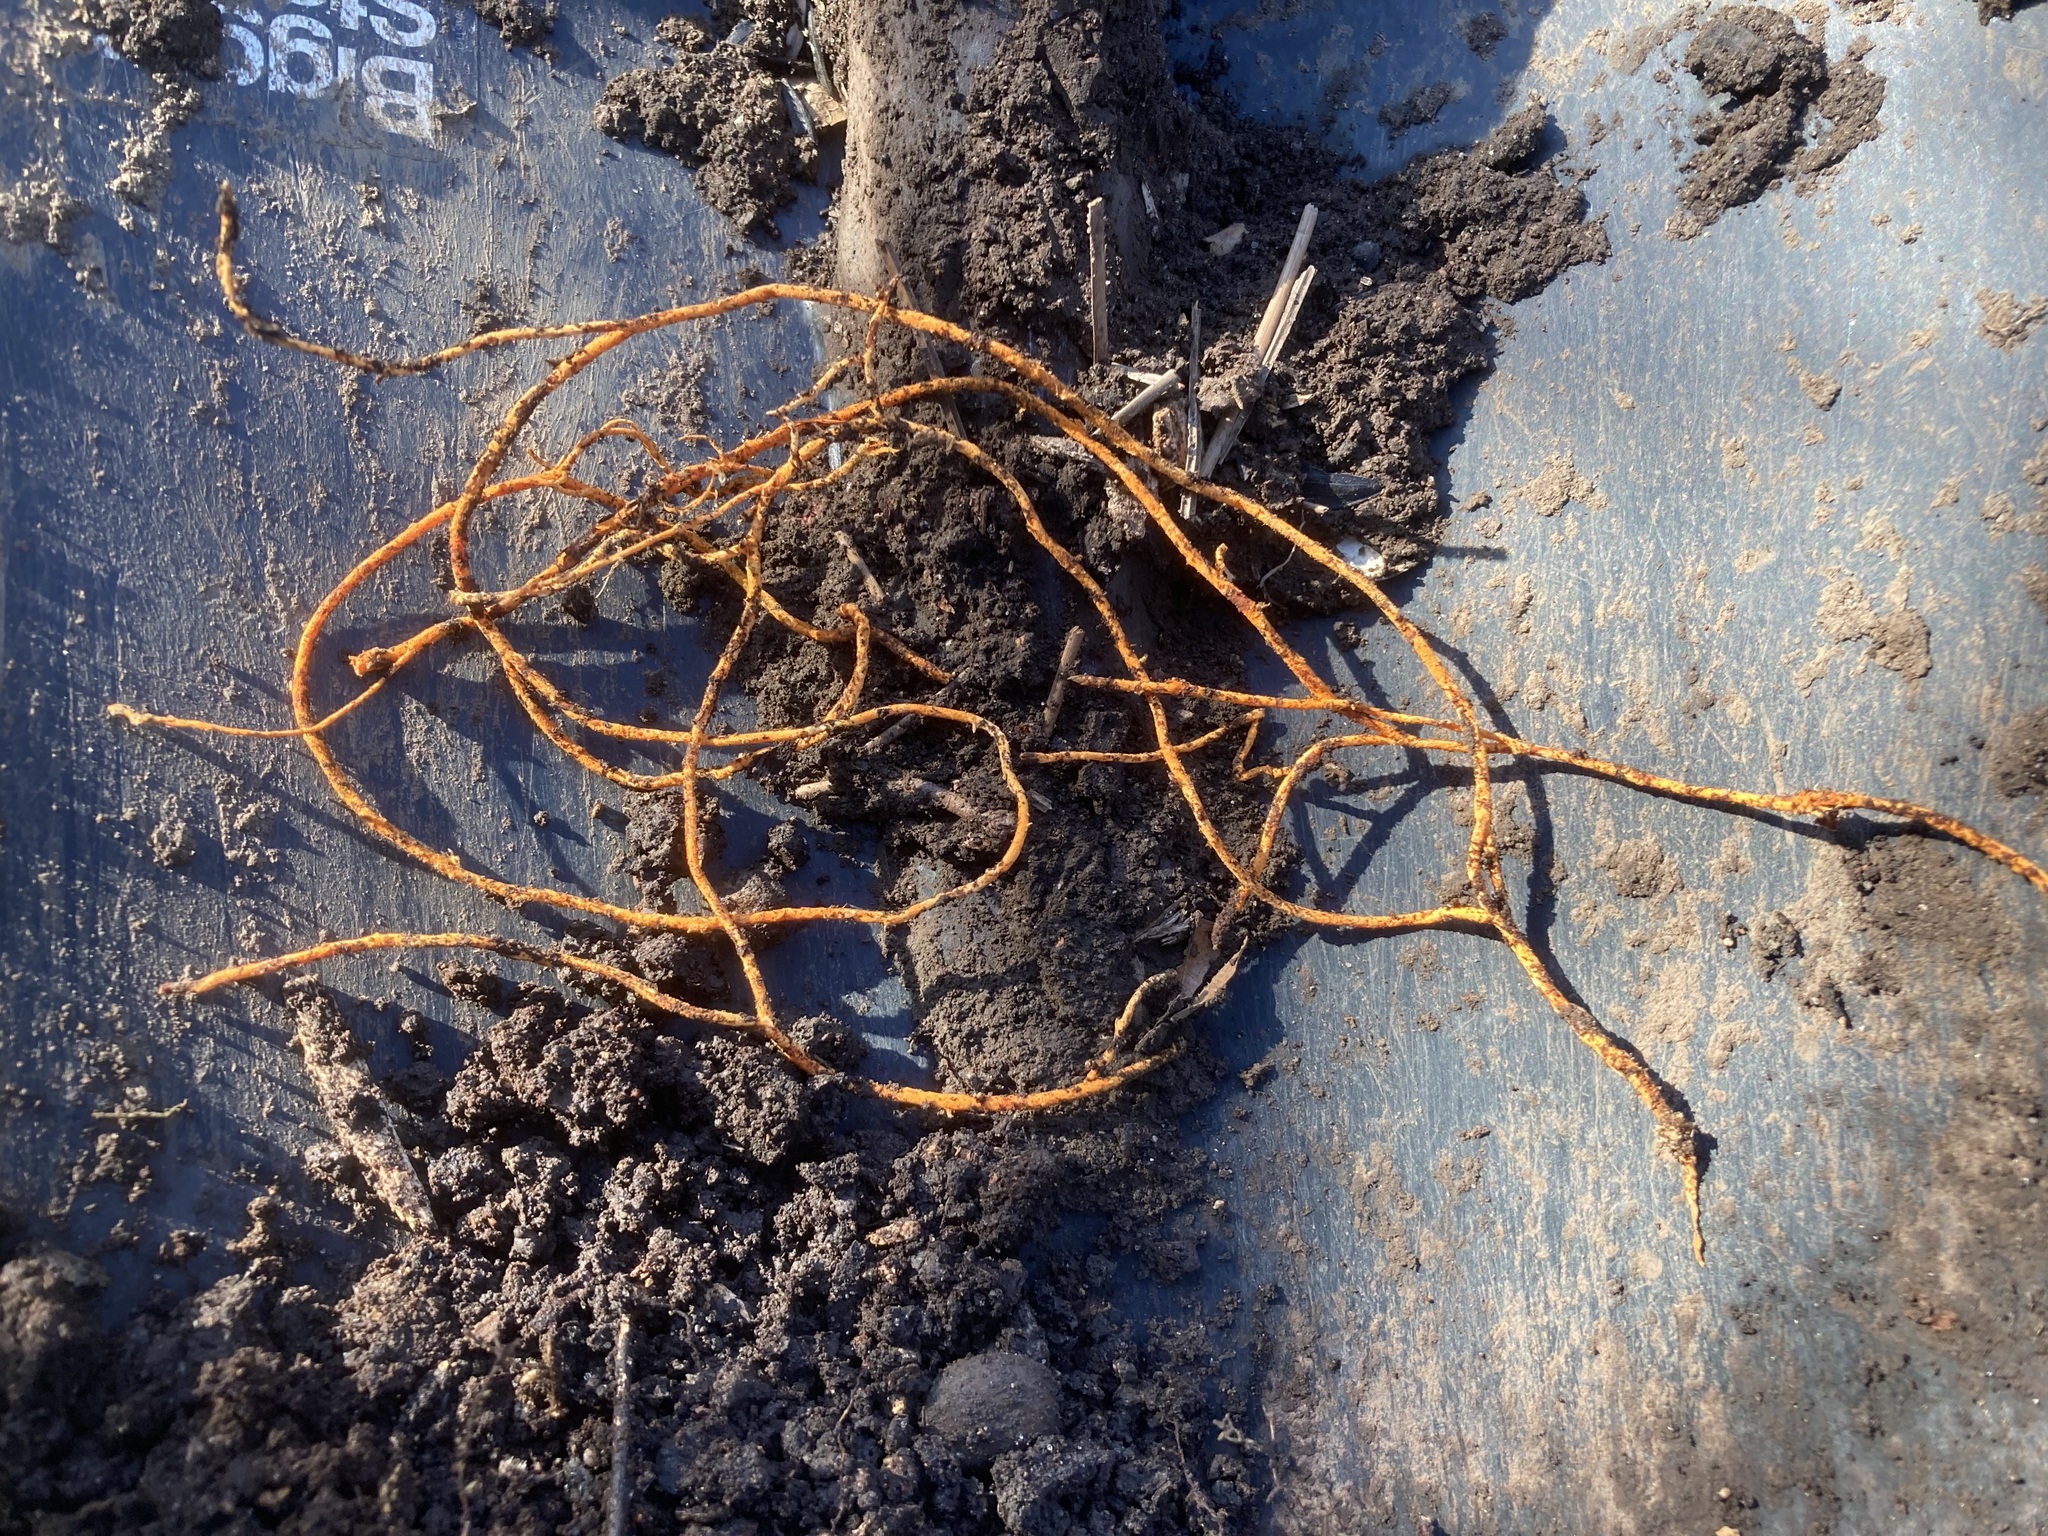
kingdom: Fungi
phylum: Basidiomycota
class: Agaricomycetes
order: Polyporales
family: Meruliaceae
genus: Hydnophlebia
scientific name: Hydnophlebia chrysorhiza
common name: Spreading yellow tooth
